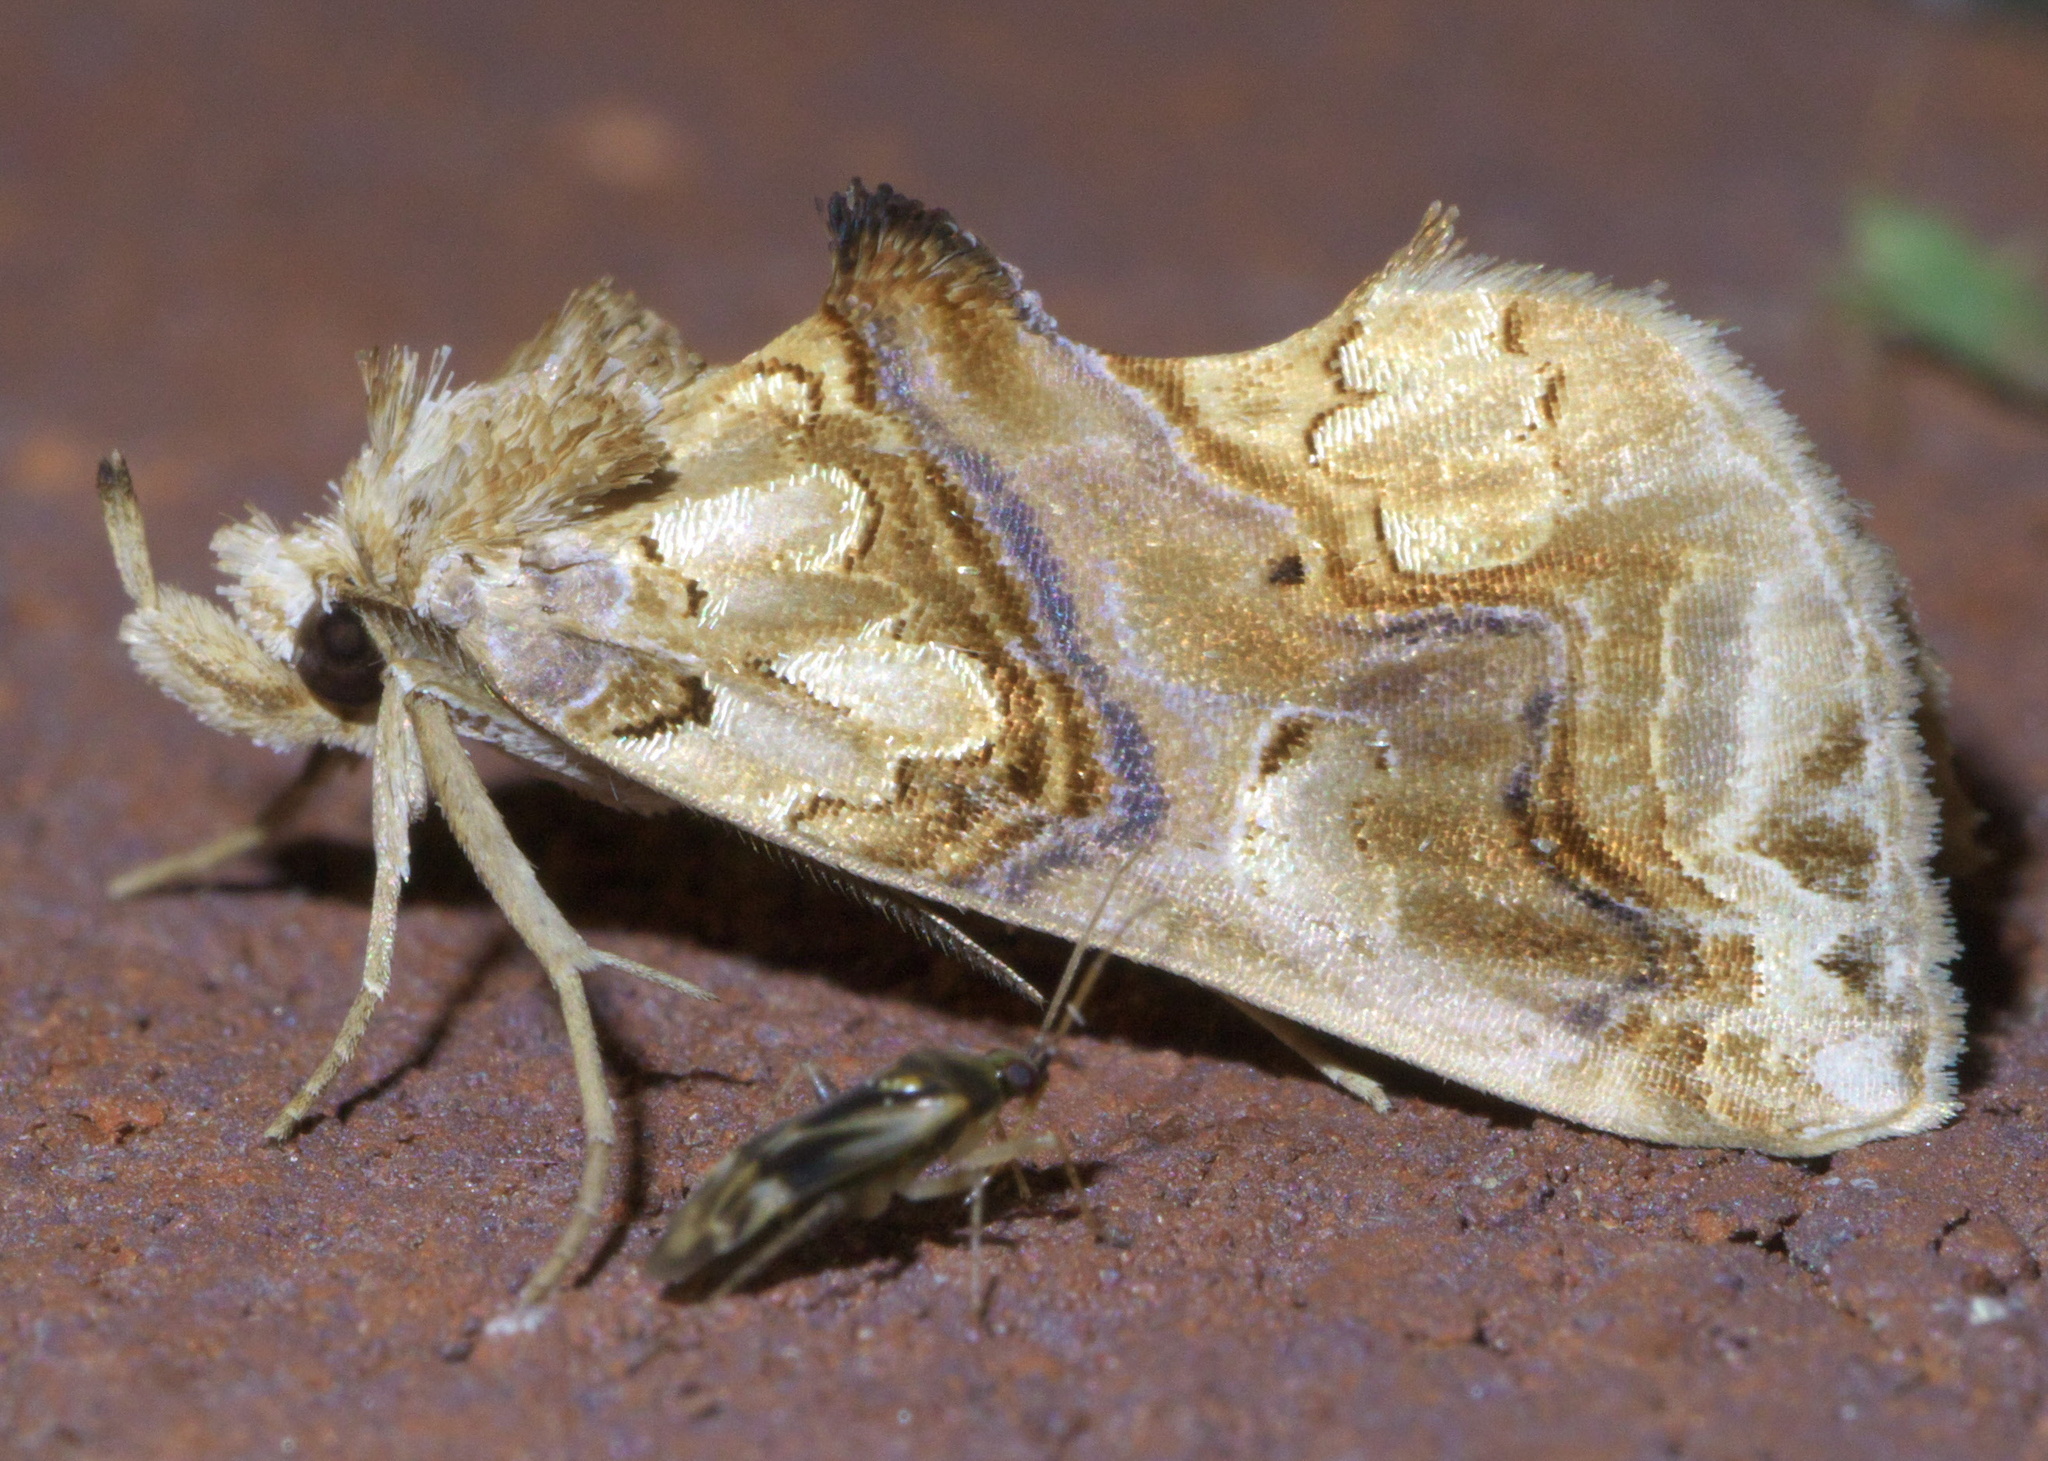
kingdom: Animalia
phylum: Arthropoda
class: Insecta
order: Lepidoptera
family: Erebidae
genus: Plusiodonta
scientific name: Plusiodonta compressipalpis
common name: Moonseed moth
